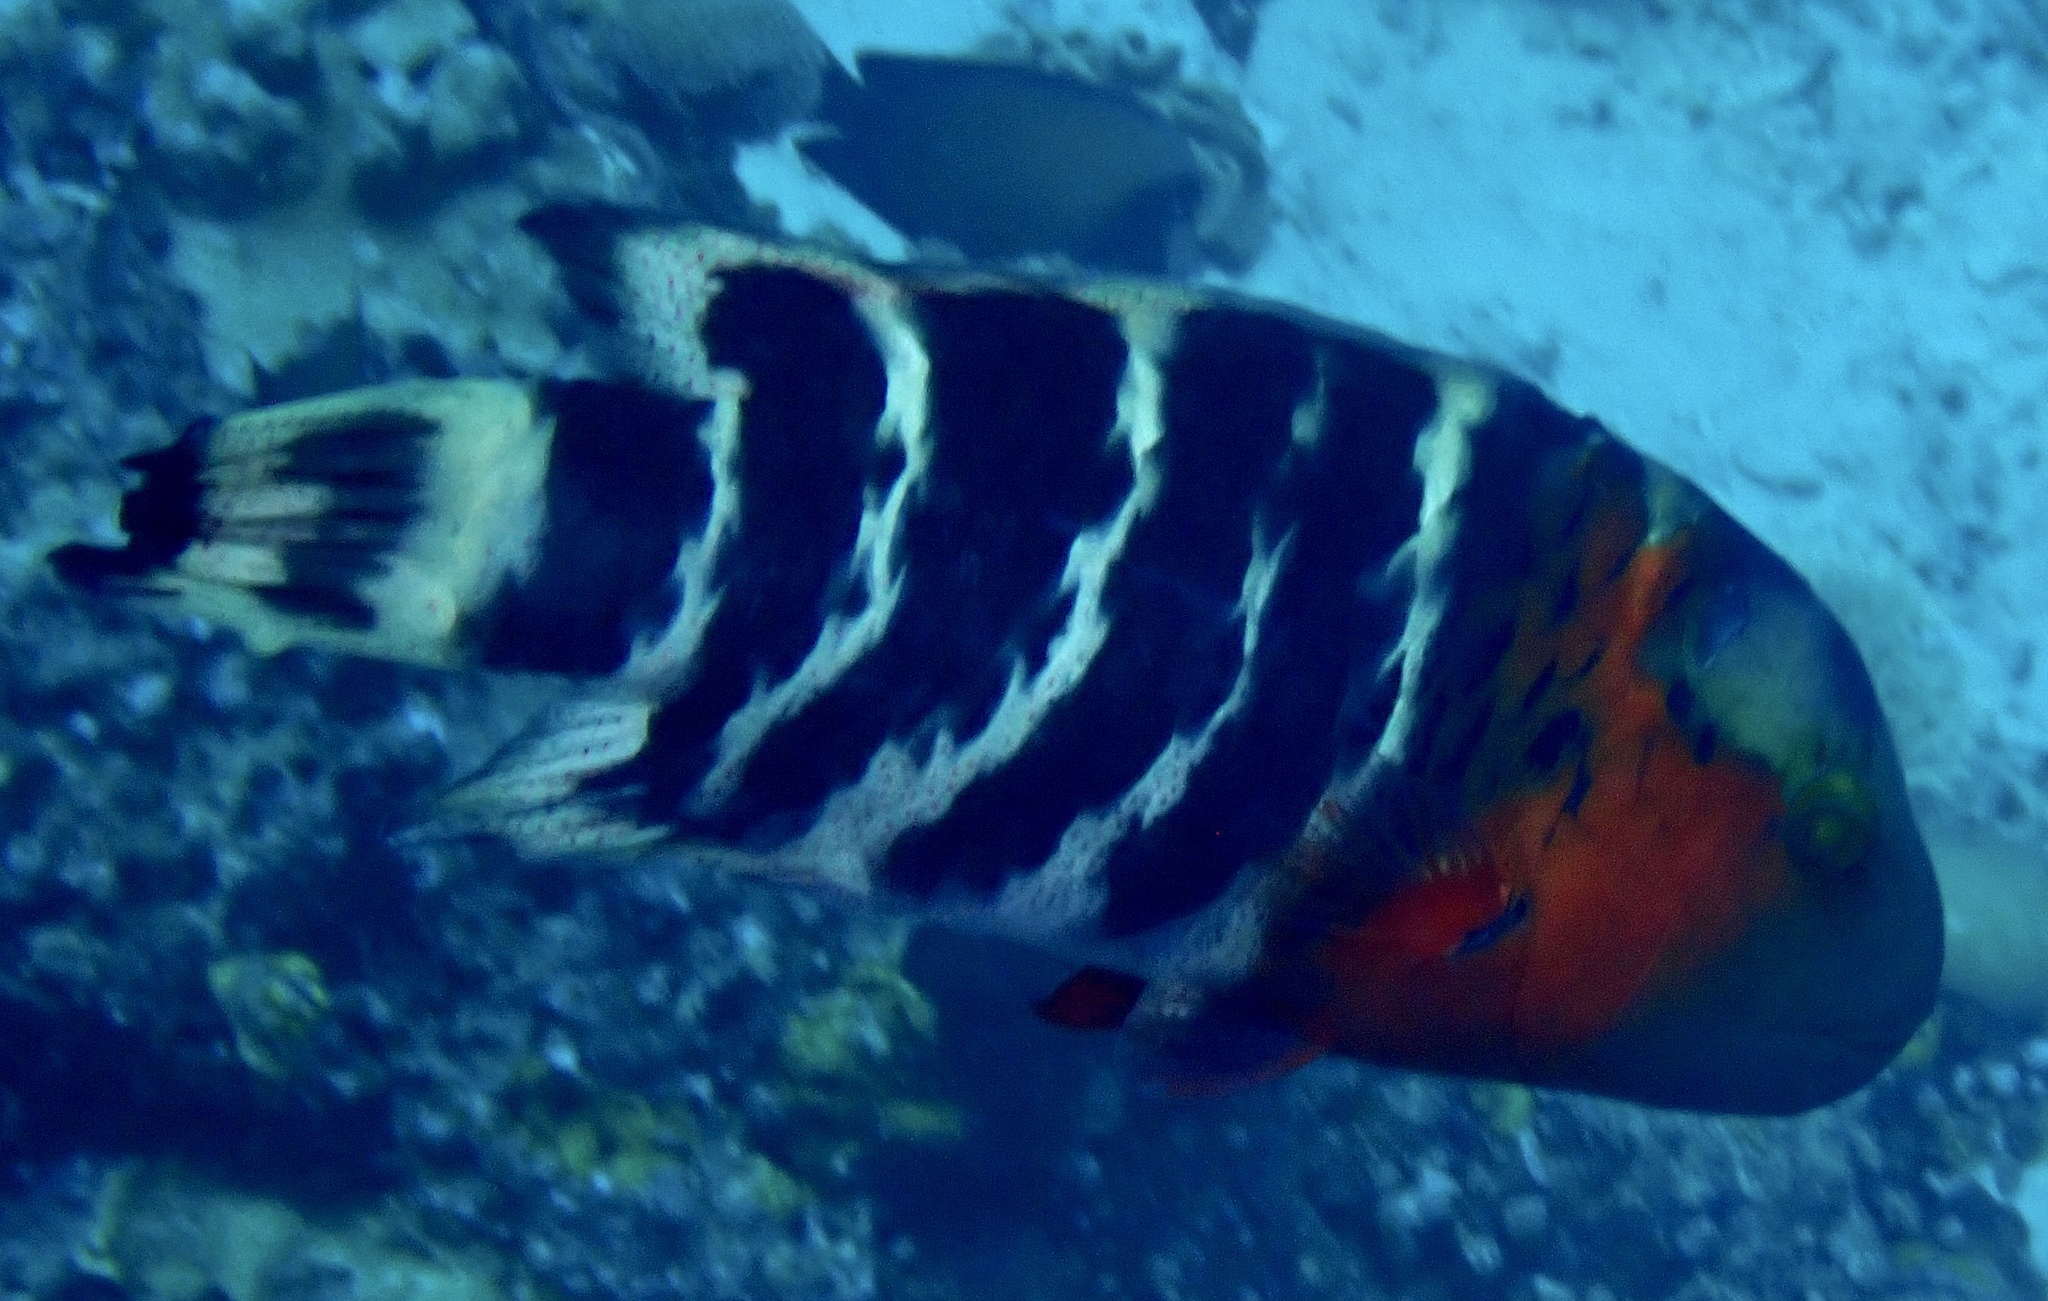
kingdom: Animalia
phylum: Chordata
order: Perciformes
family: Labridae
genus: Cheilinus
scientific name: Cheilinus fasciatus
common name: Red-breasted wrasse
